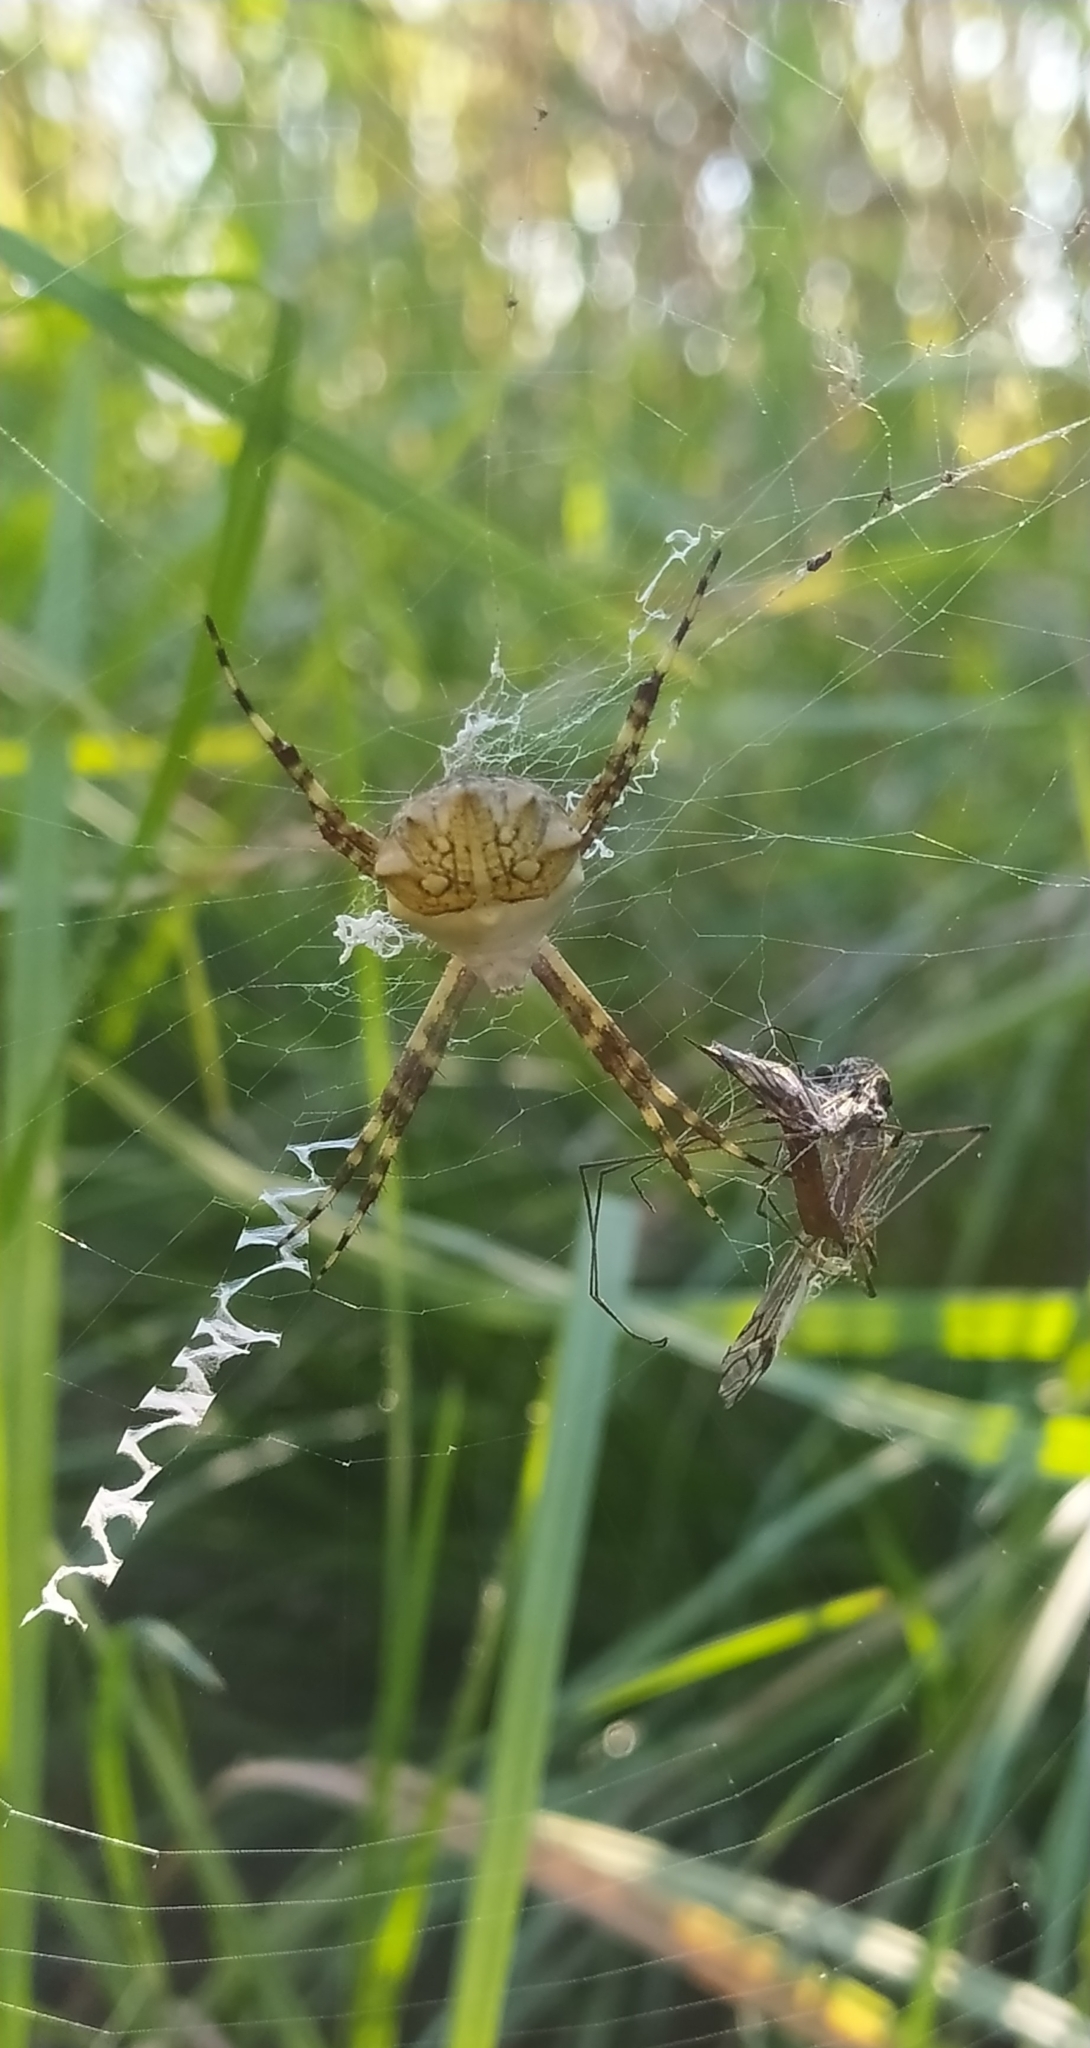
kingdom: Animalia
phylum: Arthropoda
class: Arachnida
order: Araneae
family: Araneidae
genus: Argiope
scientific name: Argiope argentata
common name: Orb weavers
